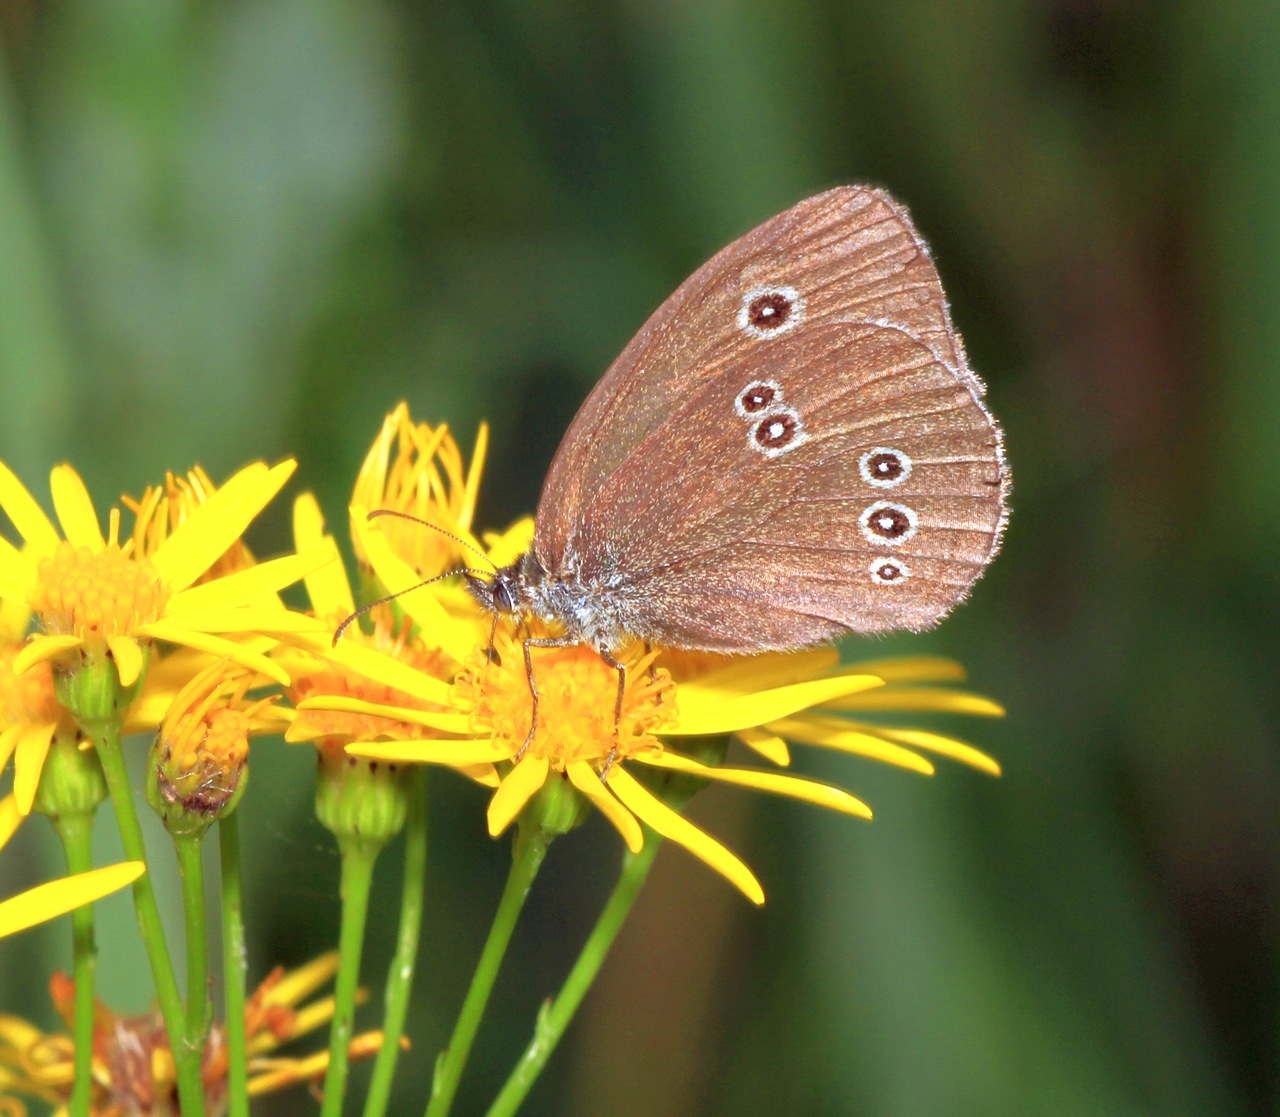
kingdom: Animalia
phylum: Arthropoda
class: Insecta
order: Lepidoptera
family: Nymphalidae
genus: Aphantopus
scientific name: Aphantopus hyperantus
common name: Ringlet
